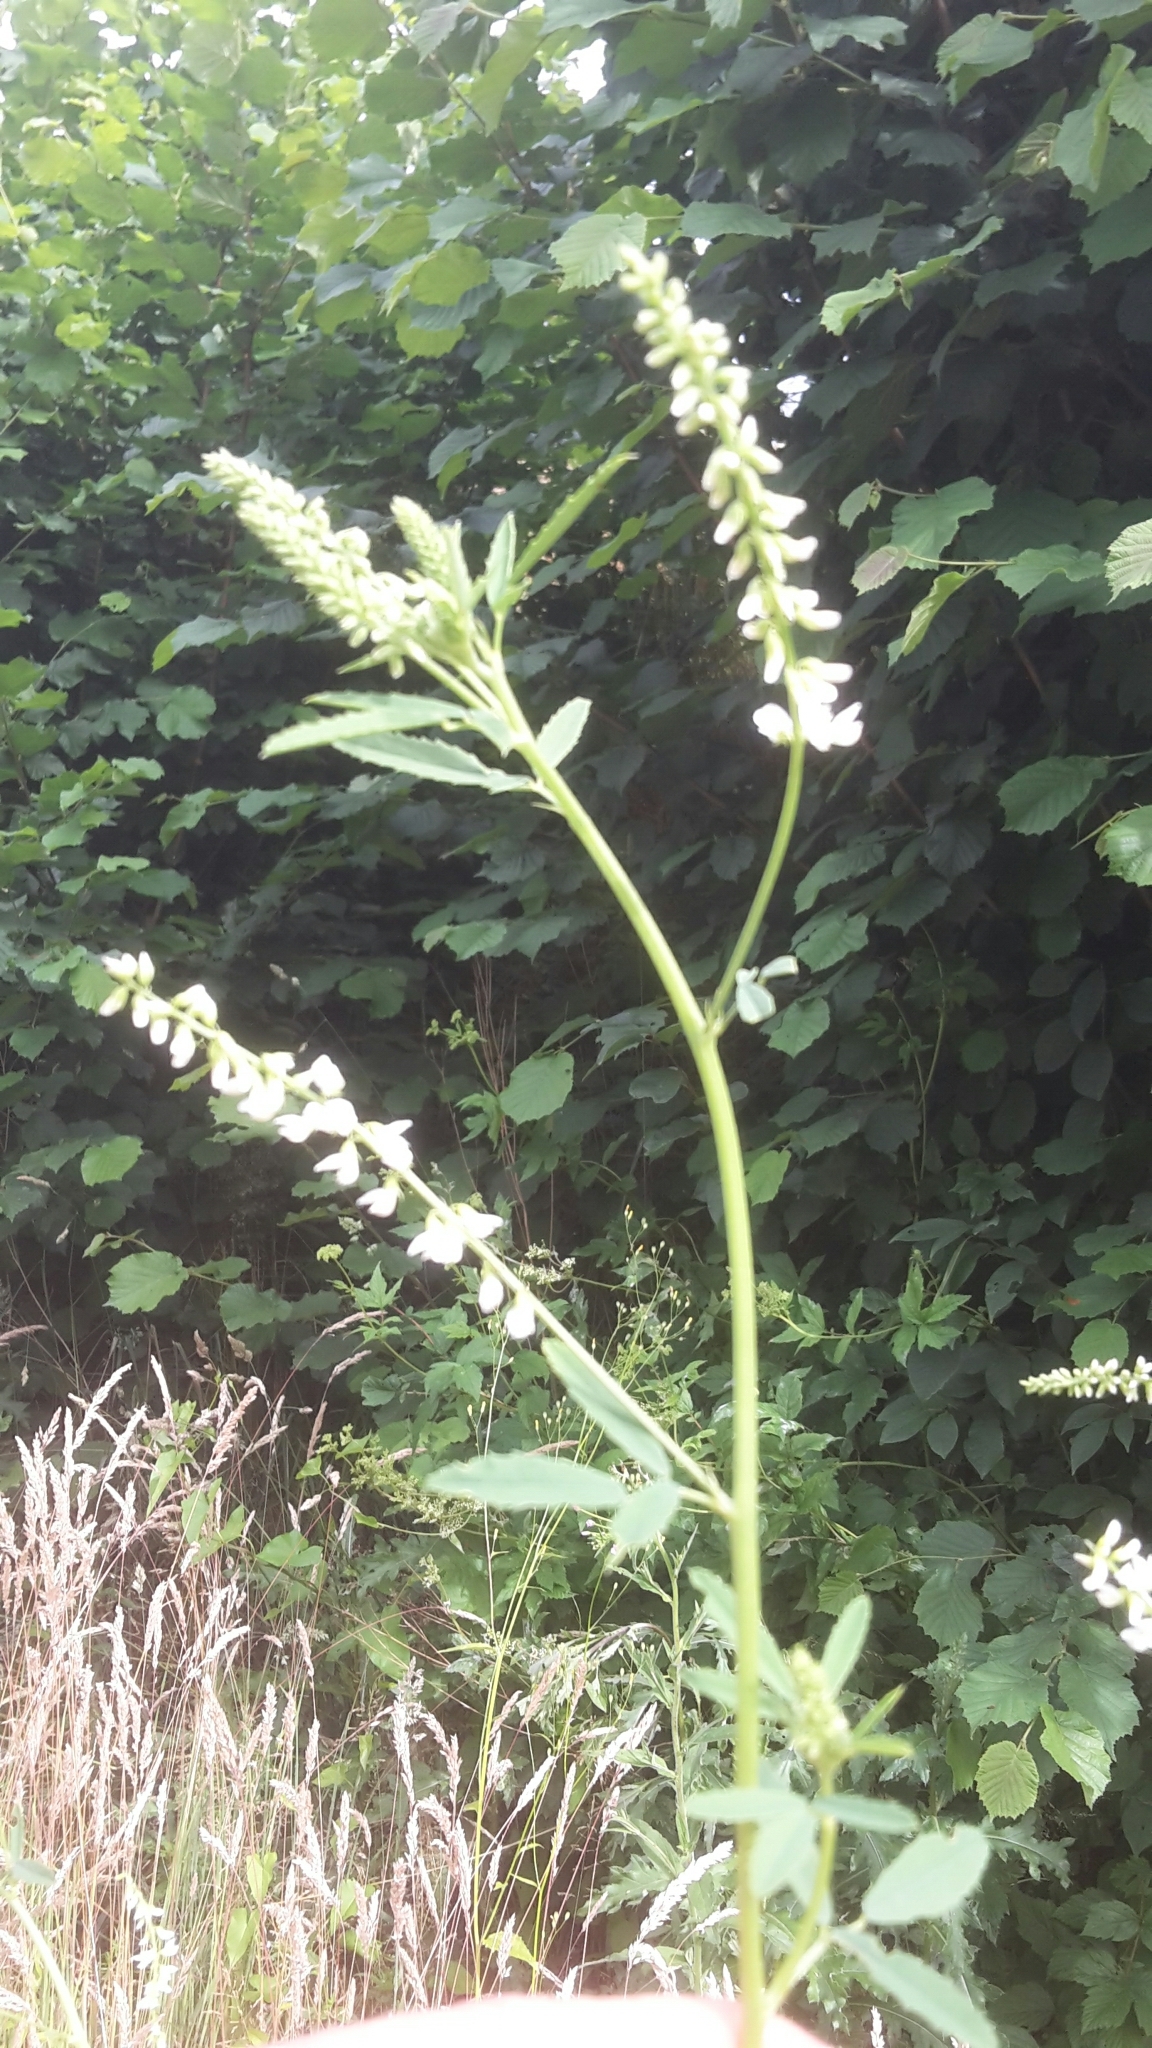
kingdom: Plantae
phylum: Tracheophyta
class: Magnoliopsida
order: Fabales
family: Fabaceae
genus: Melilotus
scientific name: Melilotus albus
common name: White melilot
